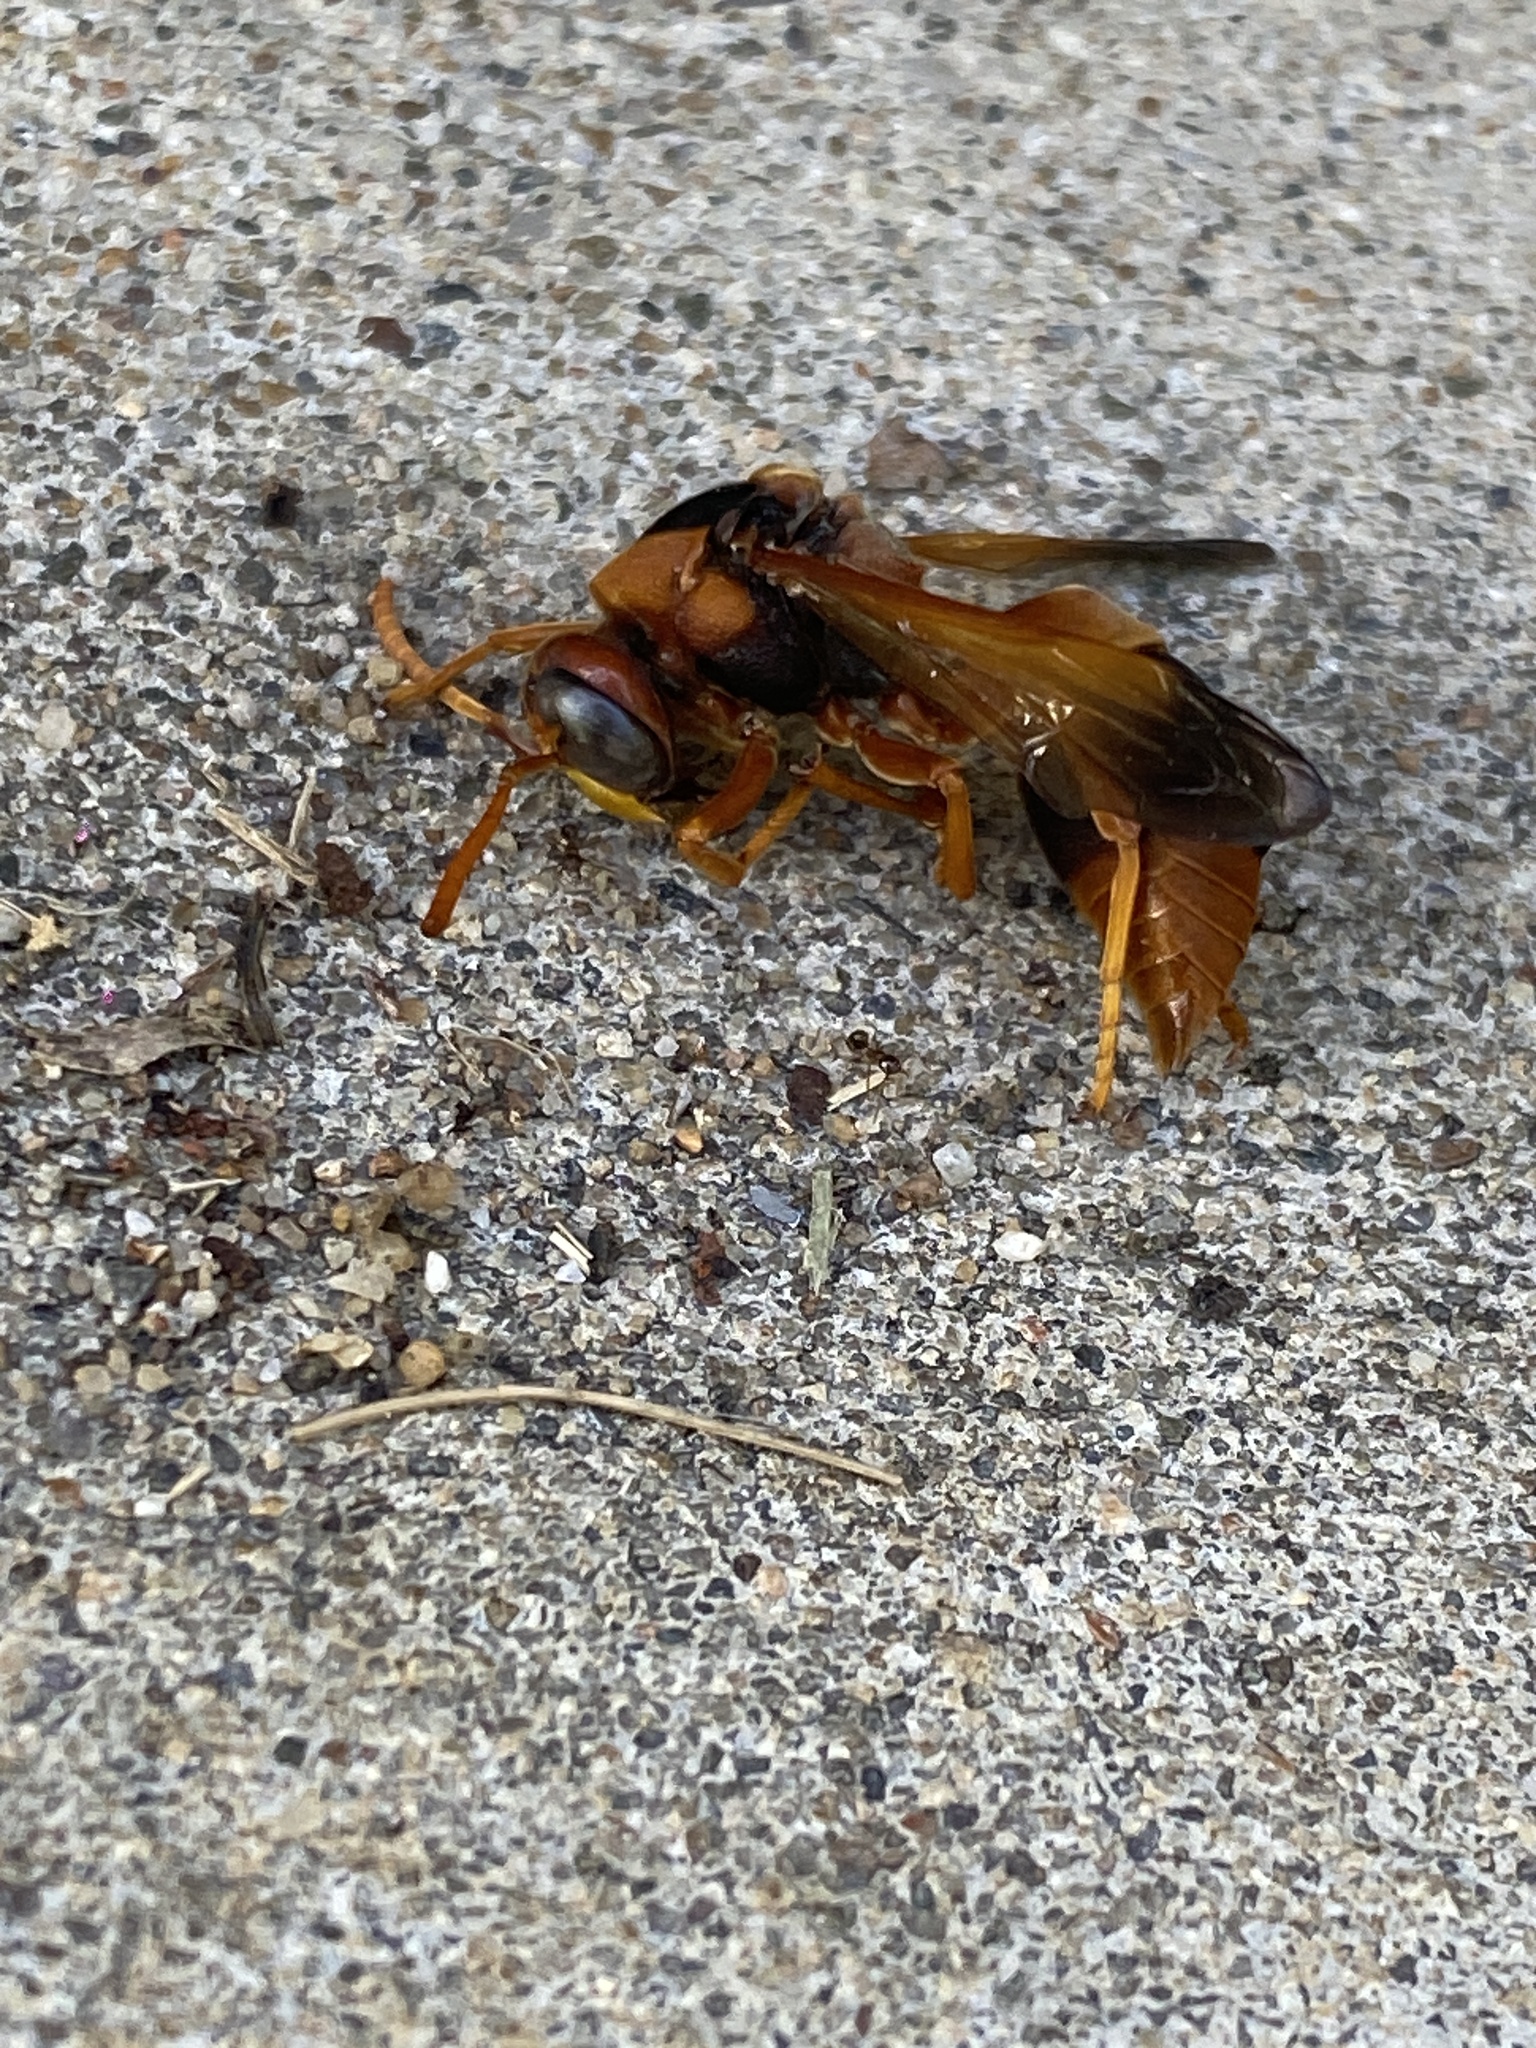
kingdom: Animalia
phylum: Arthropoda
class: Insecta
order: Hymenoptera
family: Eumenidae
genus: Abispa
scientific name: Abispa ephippium
